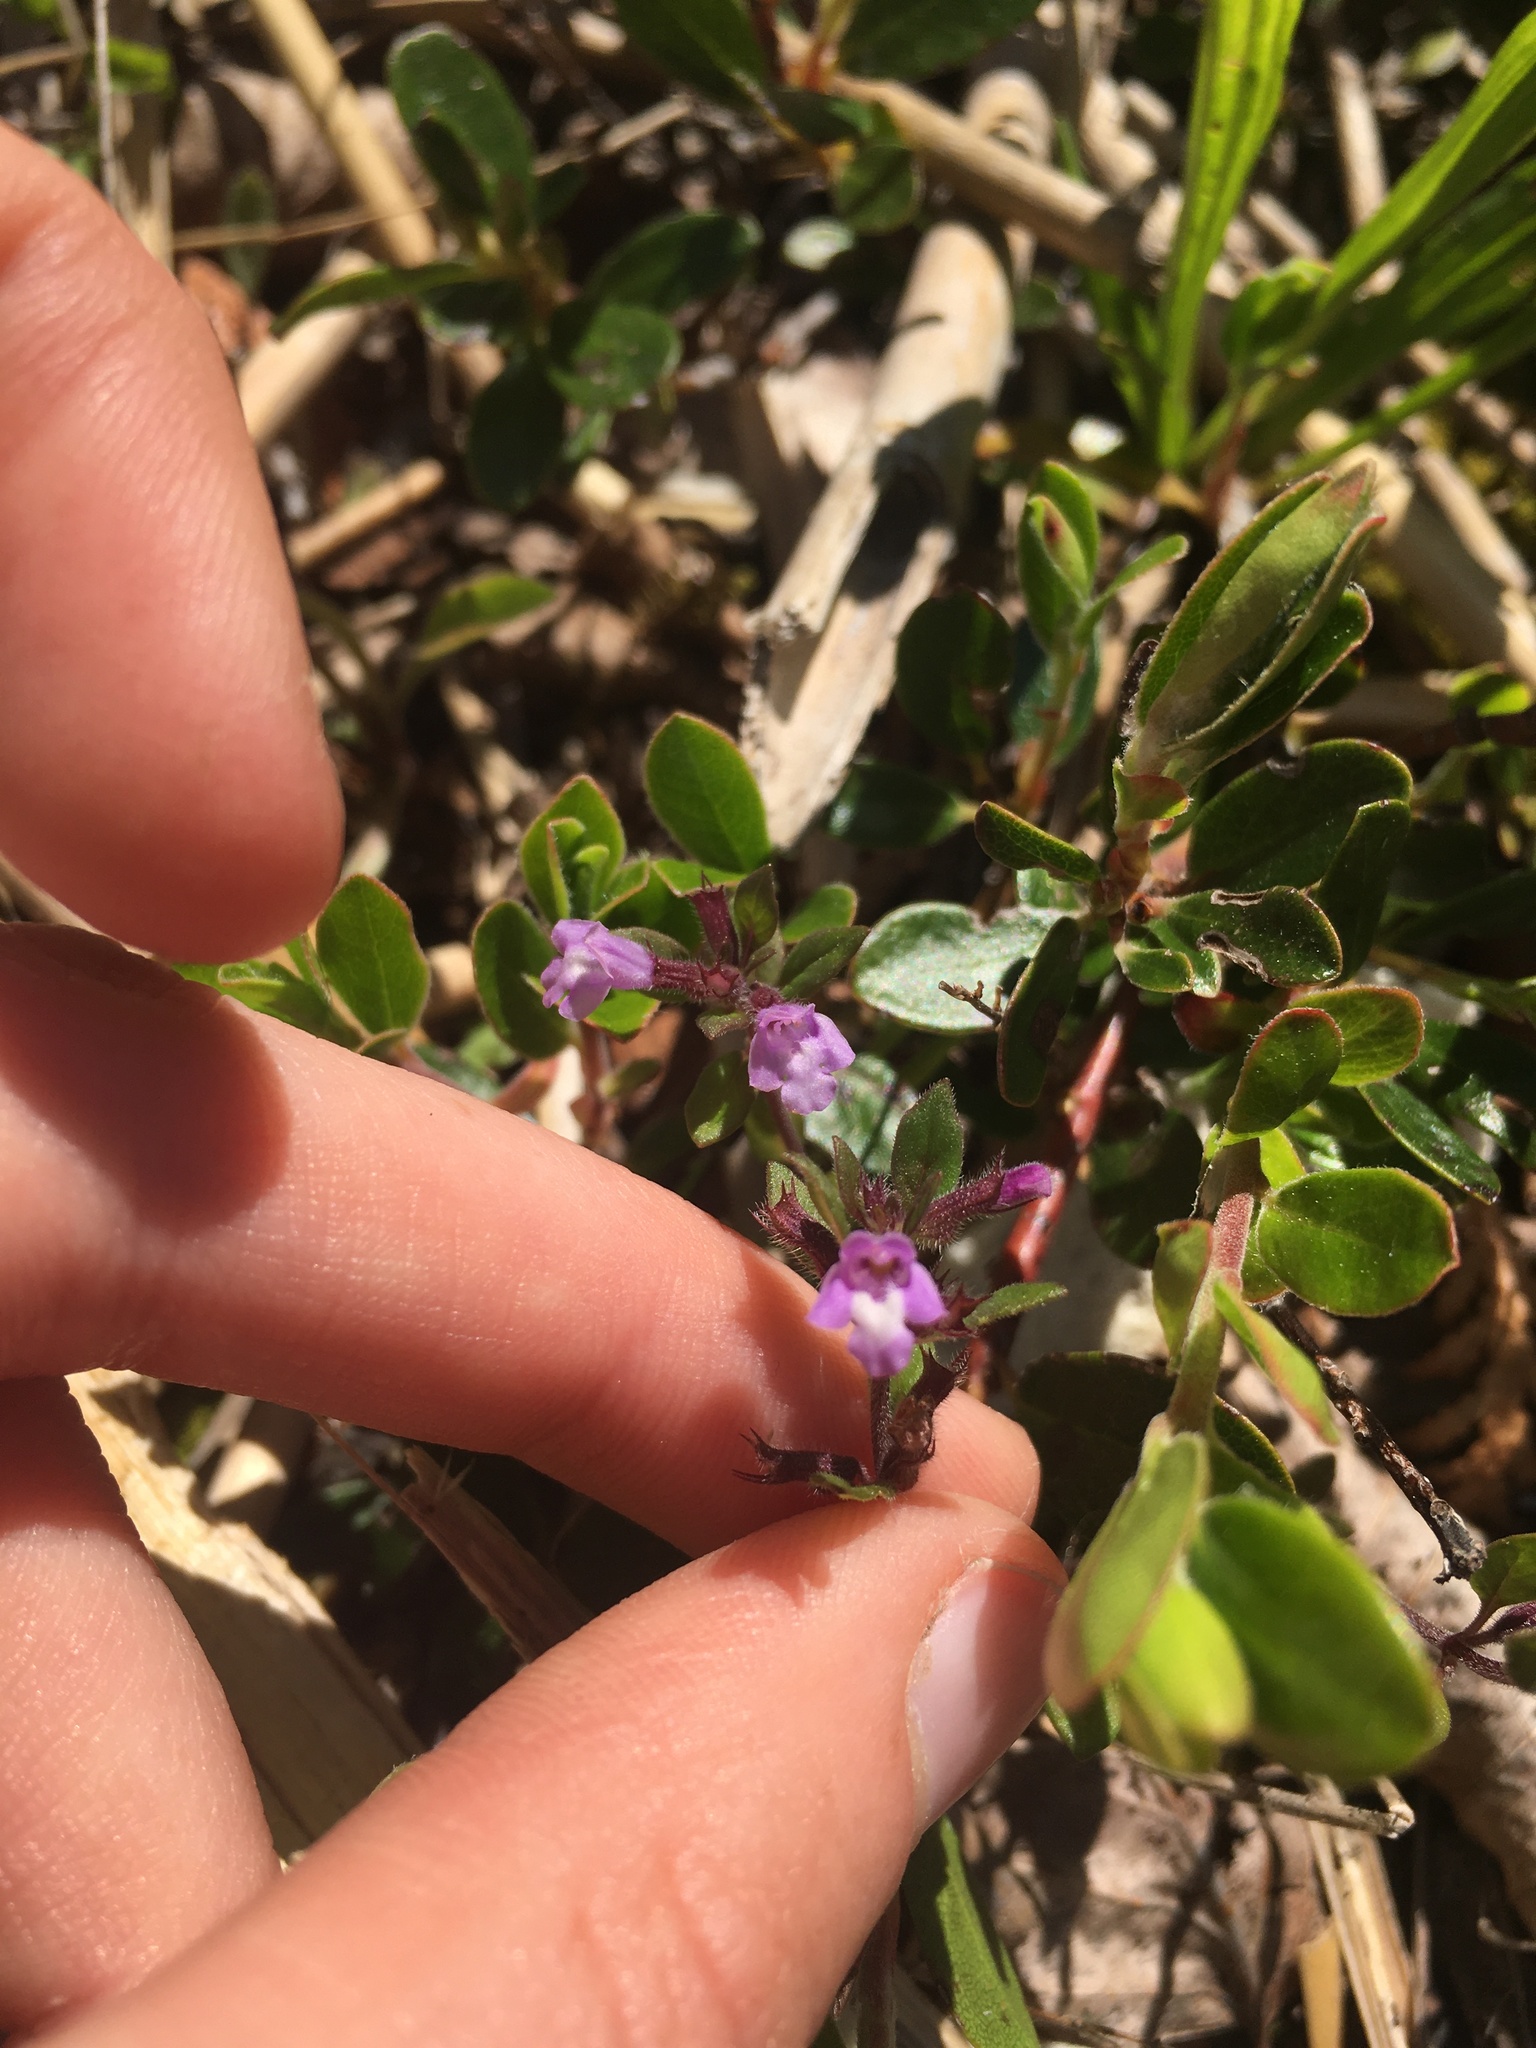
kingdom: Plantae
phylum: Tracheophyta
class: Magnoliopsida
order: Lamiales
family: Lamiaceae
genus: Clinopodium
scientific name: Clinopodium acinos
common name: Basil thyme
